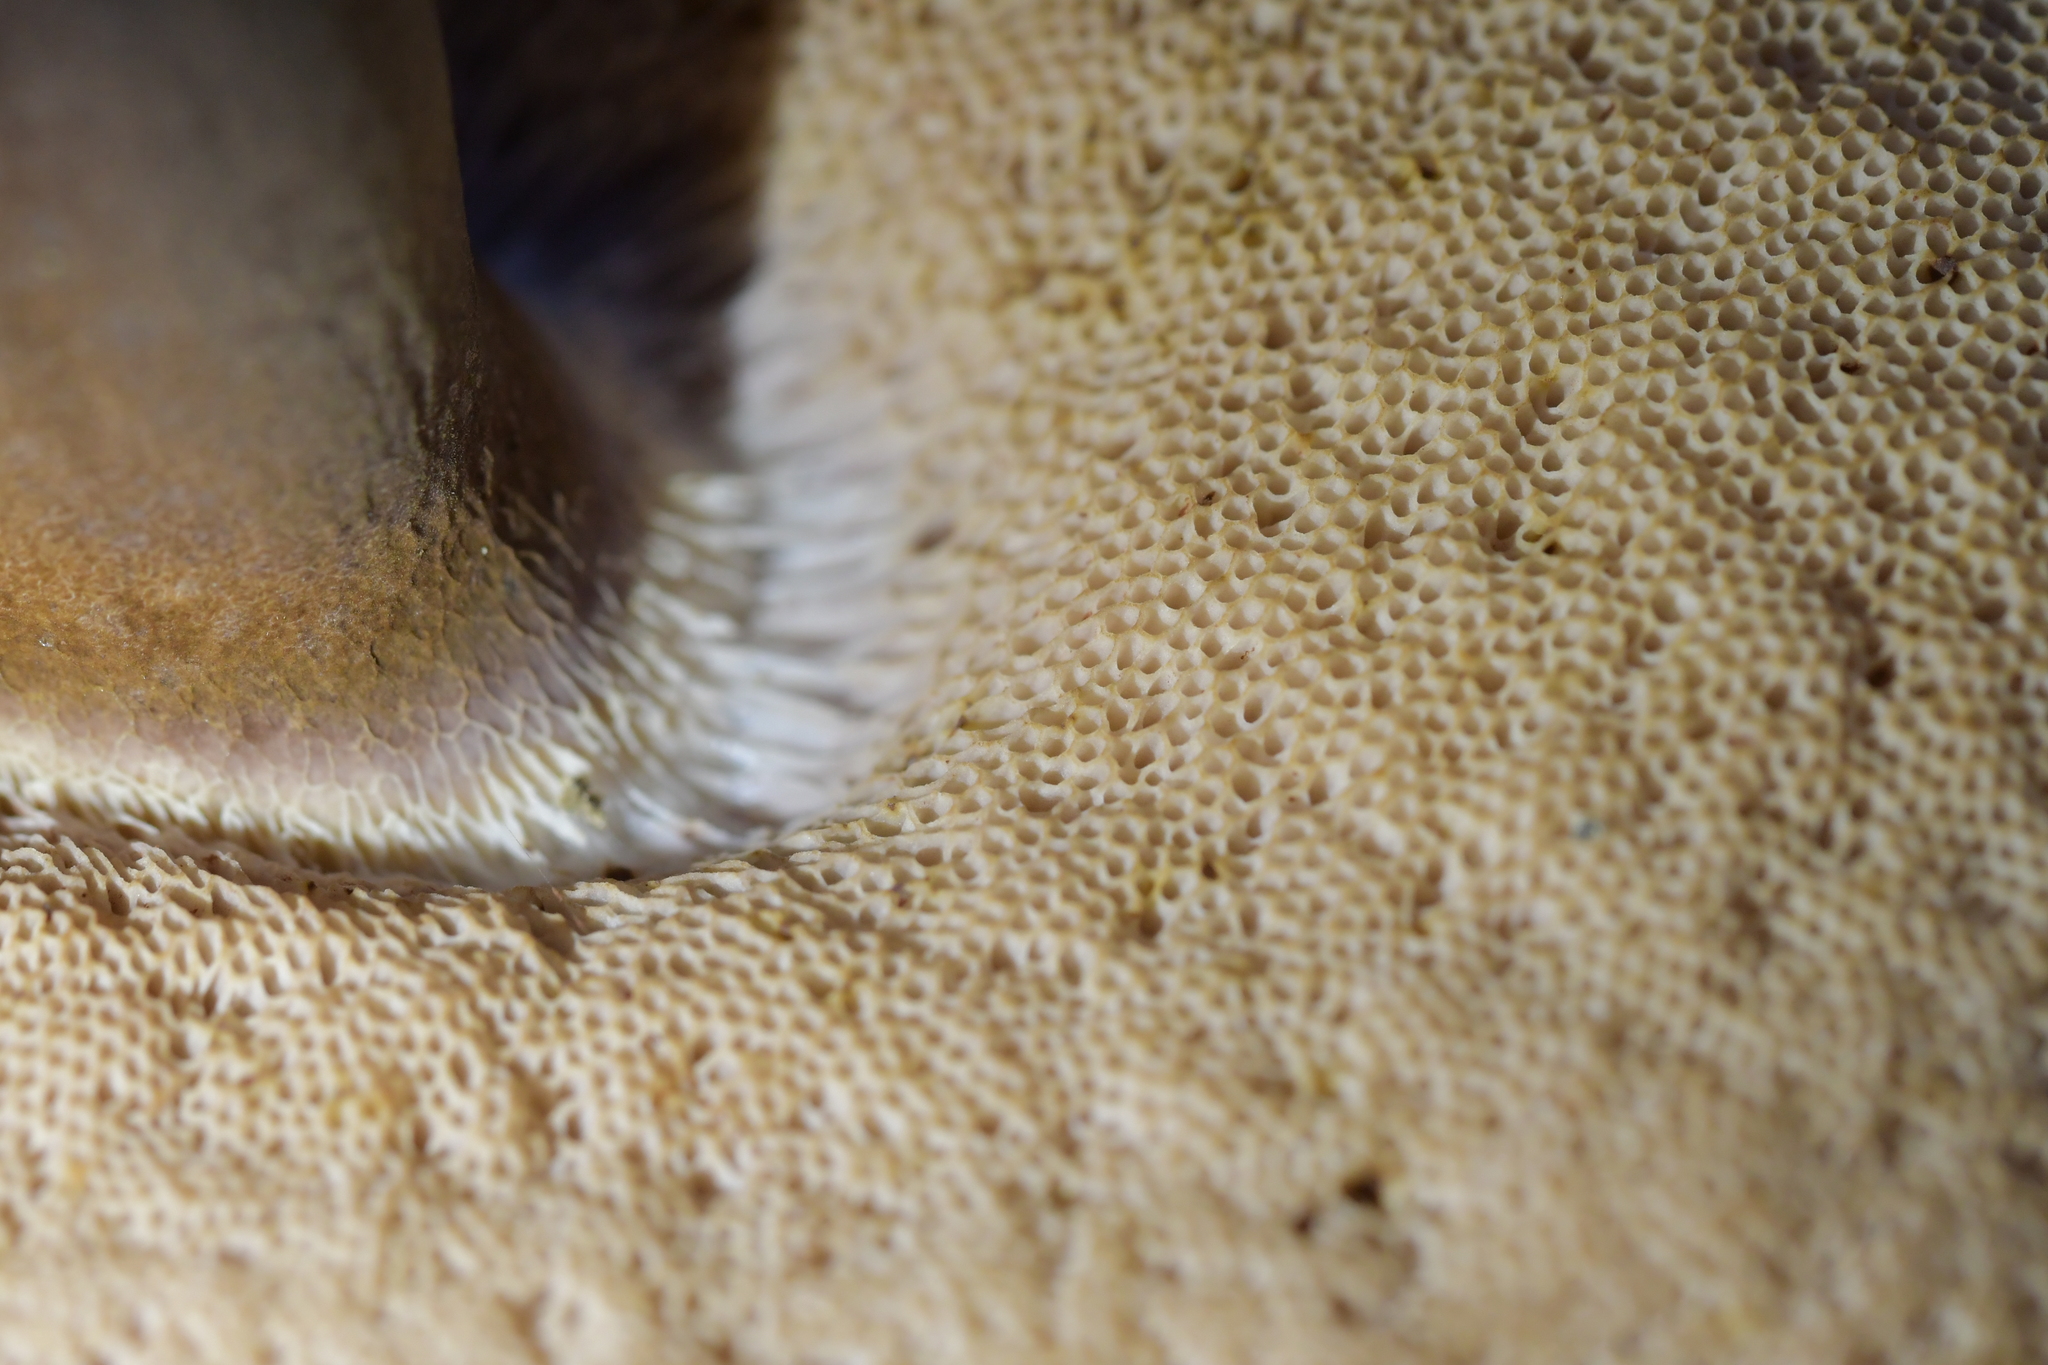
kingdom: Fungi
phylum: Basidiomycota
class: Agaricomycetes
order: Boletales
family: Boletaceae
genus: Porphyrellus
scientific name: Porphyrellus formosus
